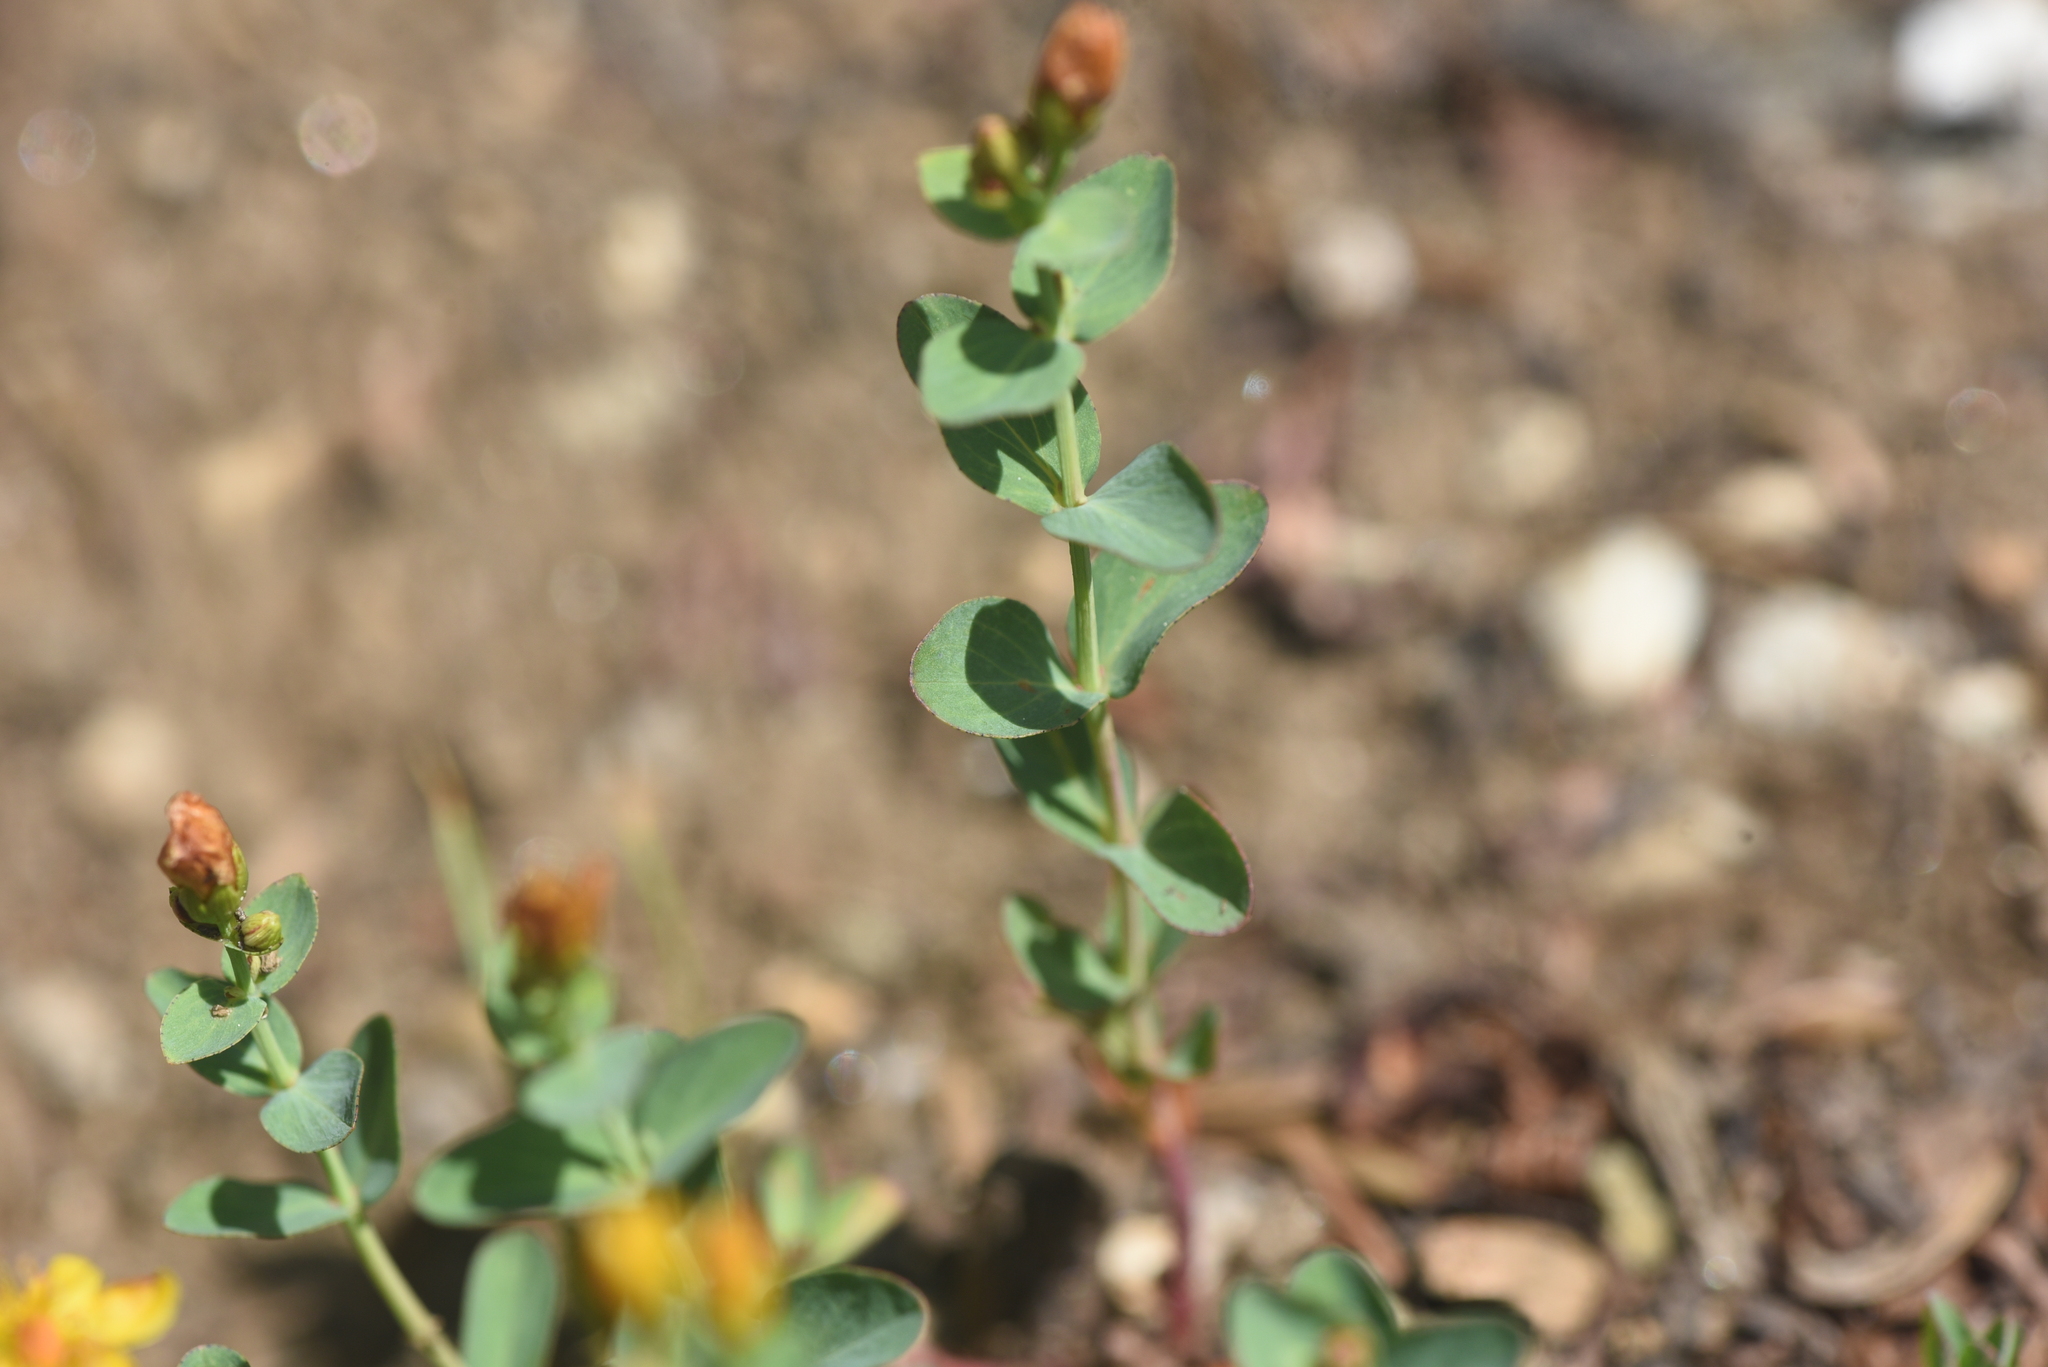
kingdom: Plantae
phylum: Tracheophyta
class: Magnoliopsida
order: Malpighiales
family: Hypericaceae
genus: Hypericum
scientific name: Hypericum scouleri
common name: Scouler's st. john's-wort
